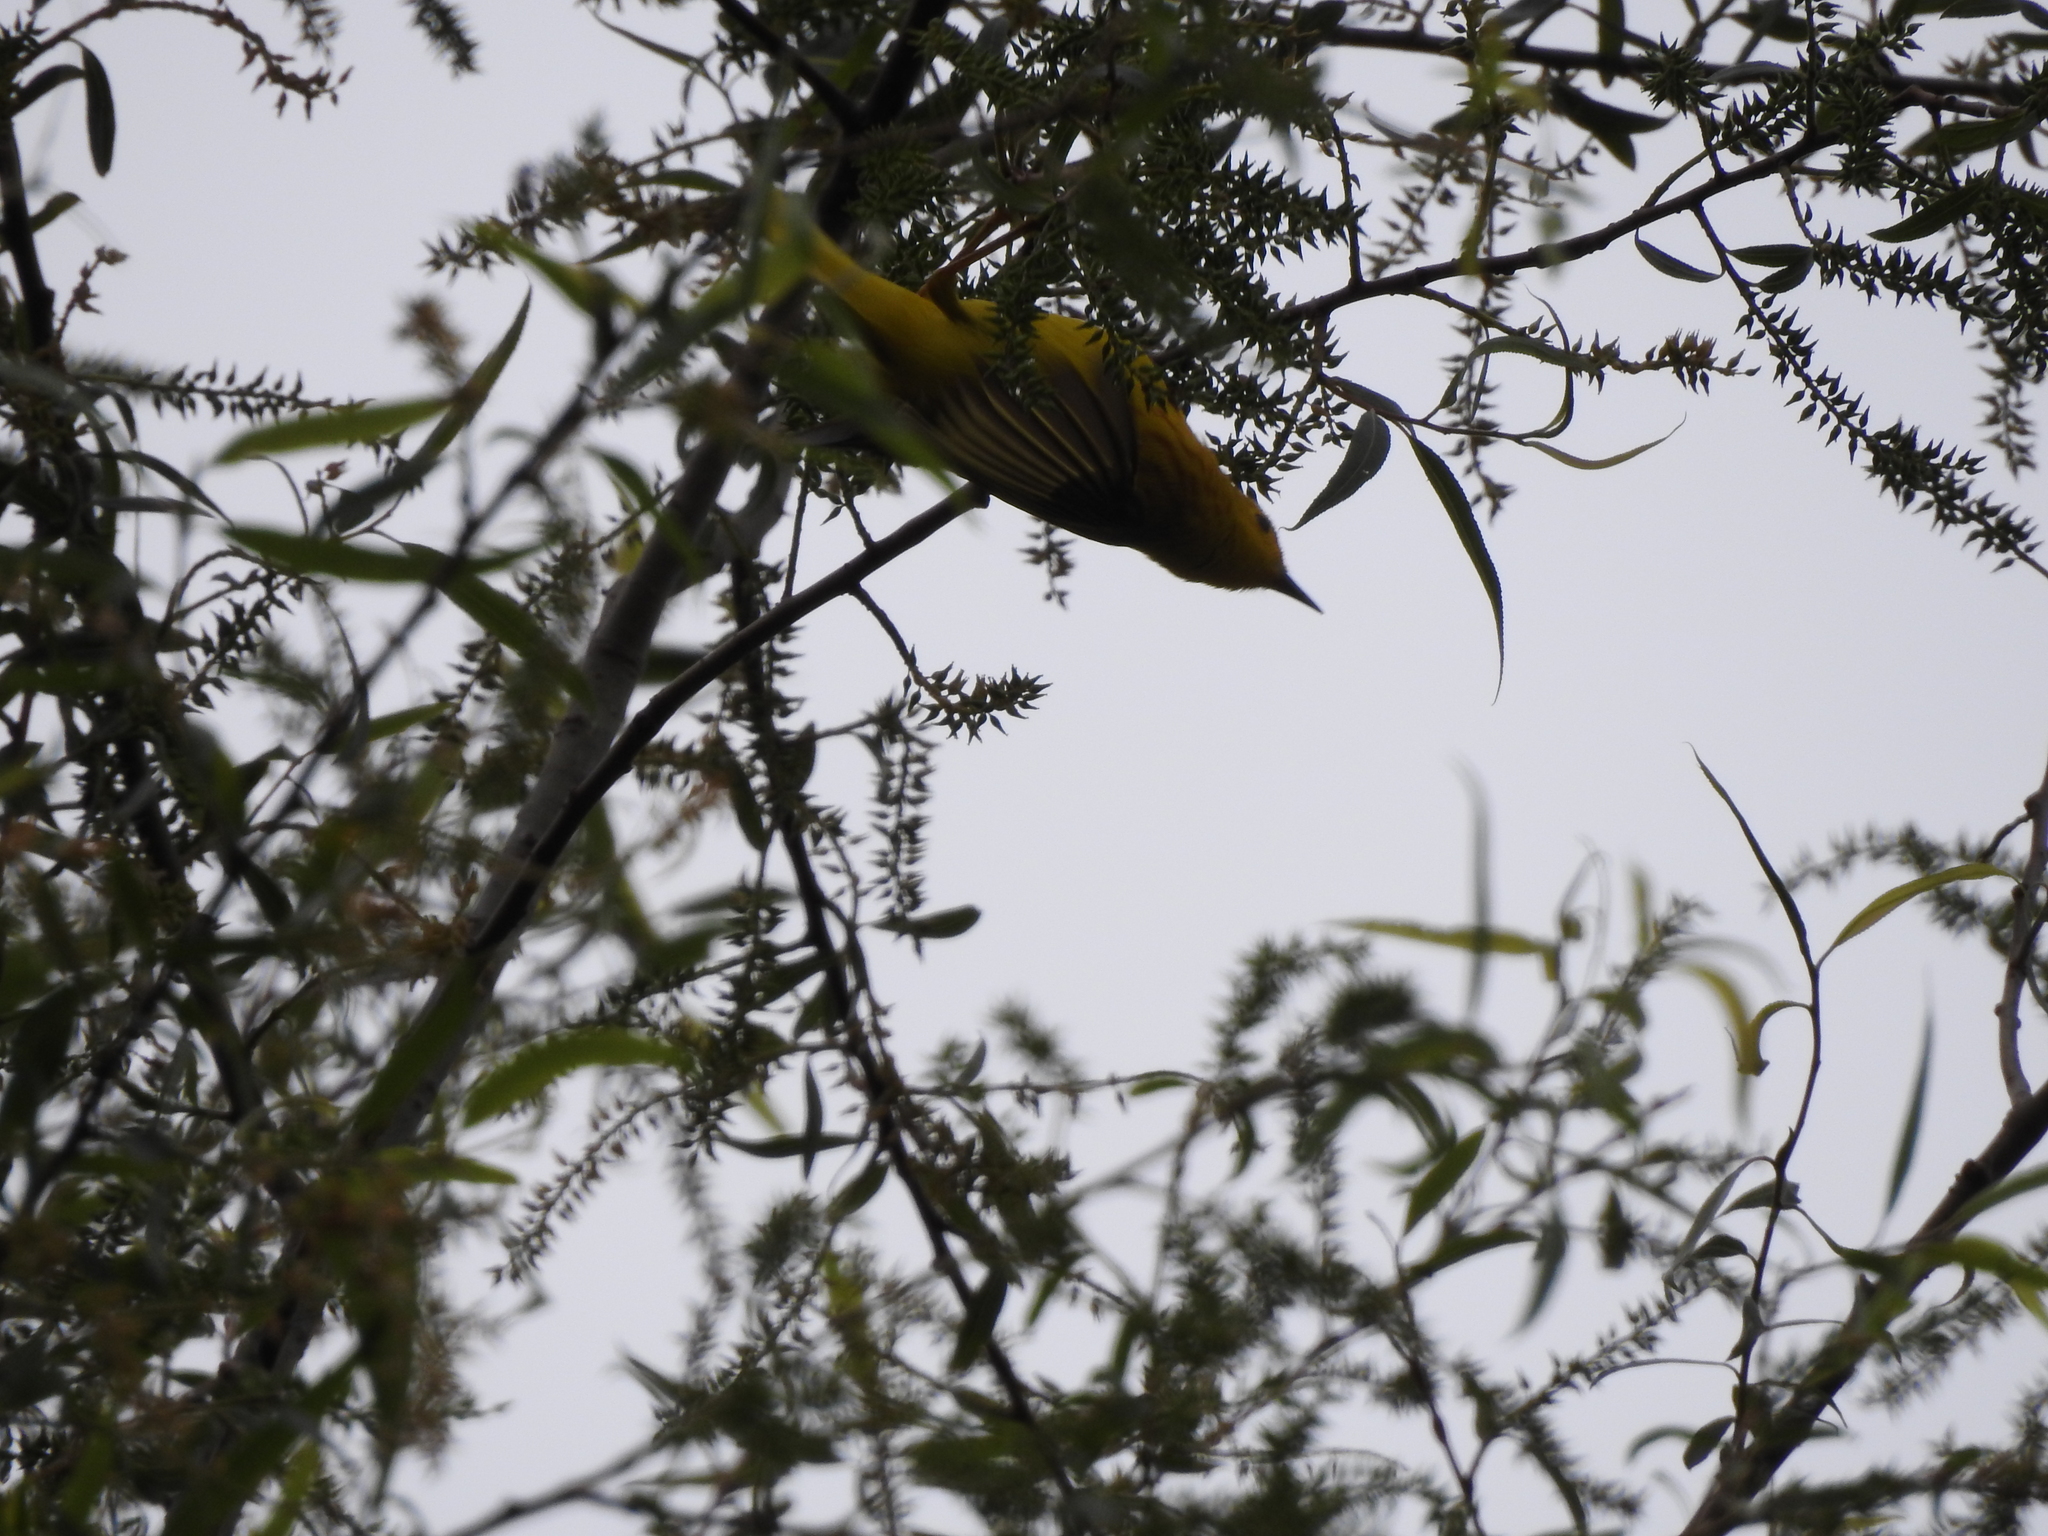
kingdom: Animalia
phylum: Chordata
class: Aves
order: Passeriformes
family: Parulidae
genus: Setophaga
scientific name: Setophaga petechia
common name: Yellow warbler
